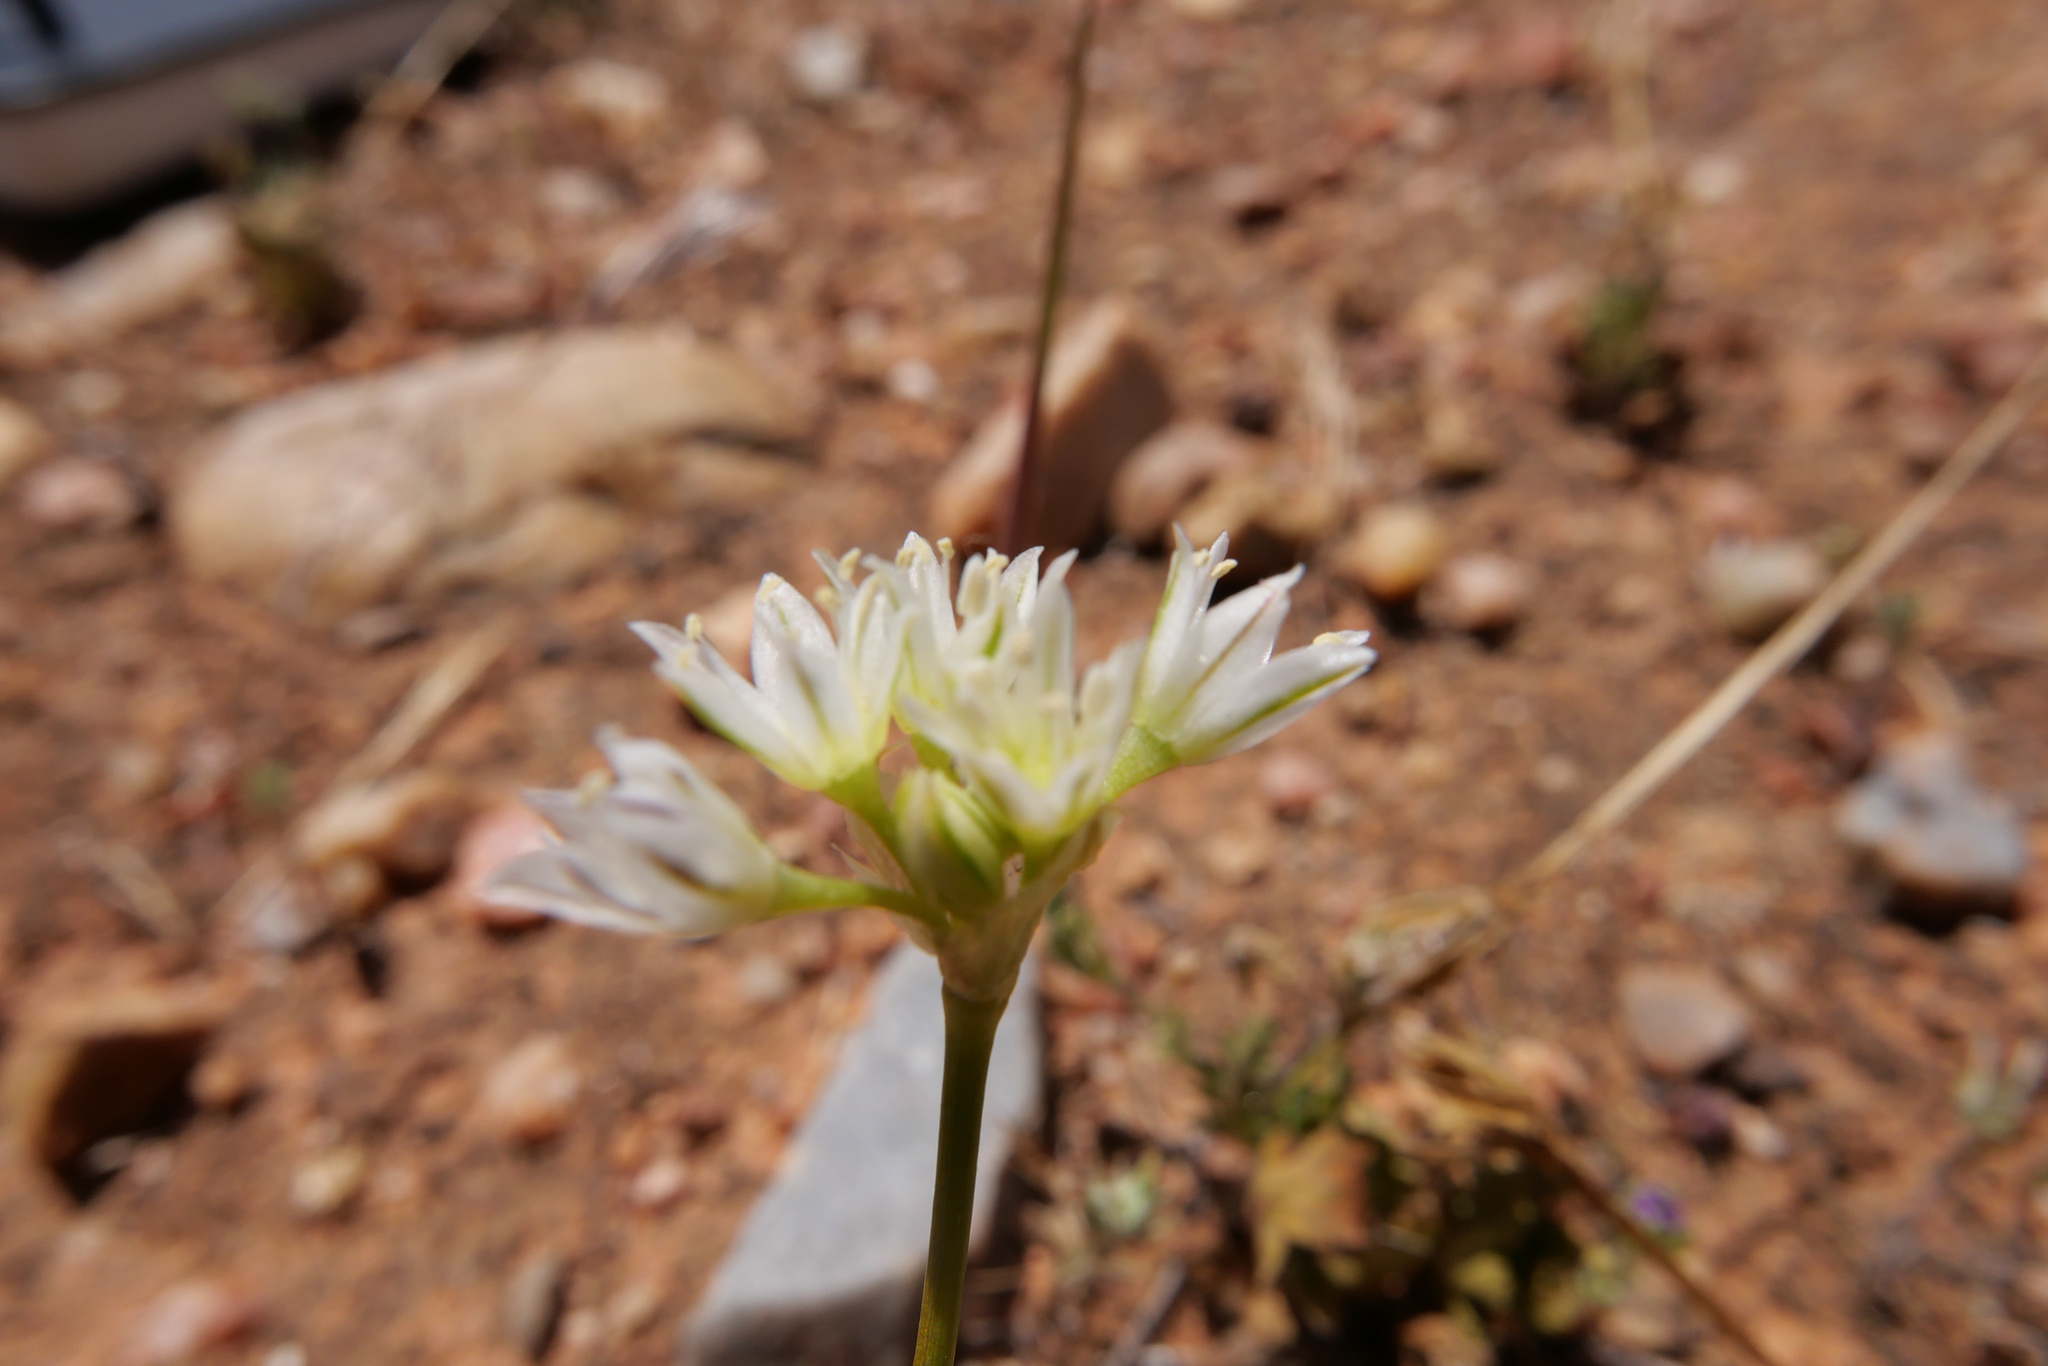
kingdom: Plantae
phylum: Tracheophyta
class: Liliopsida
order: Asparagales
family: Amaryllidaceae
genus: Allium
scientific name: Allium lacunosum
